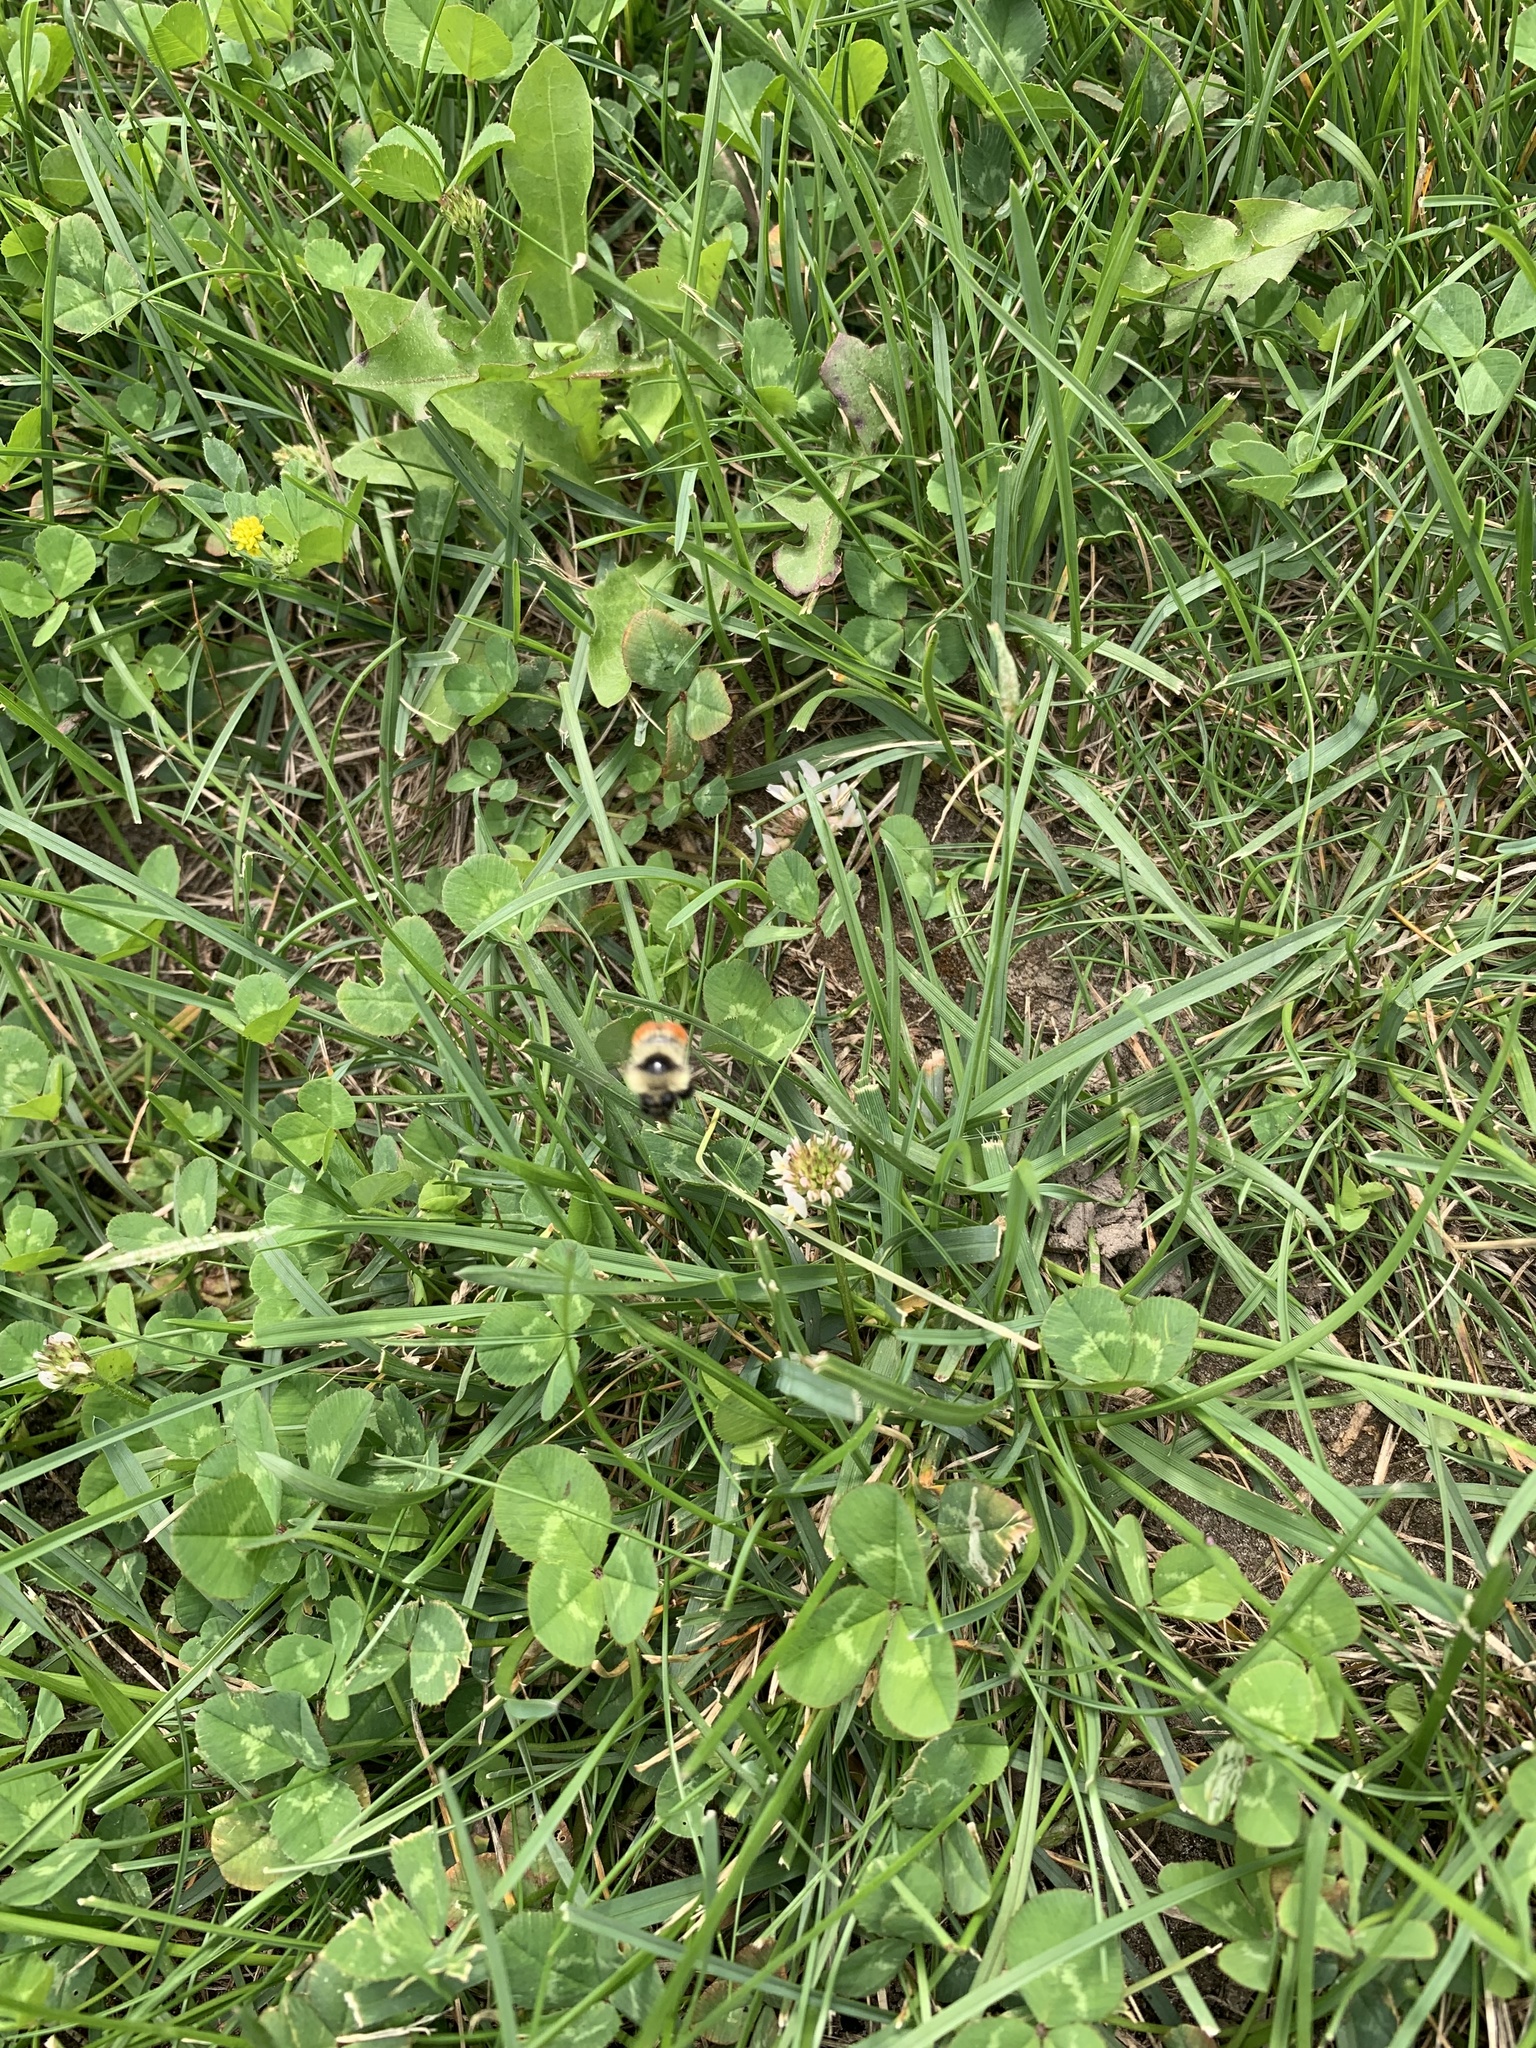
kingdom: Animalia
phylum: Arthropoda
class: Insecta
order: Hymenoptera
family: Apidae
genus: Bombus
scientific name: Bombus rufocinctus
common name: Red-belted bumble bee
